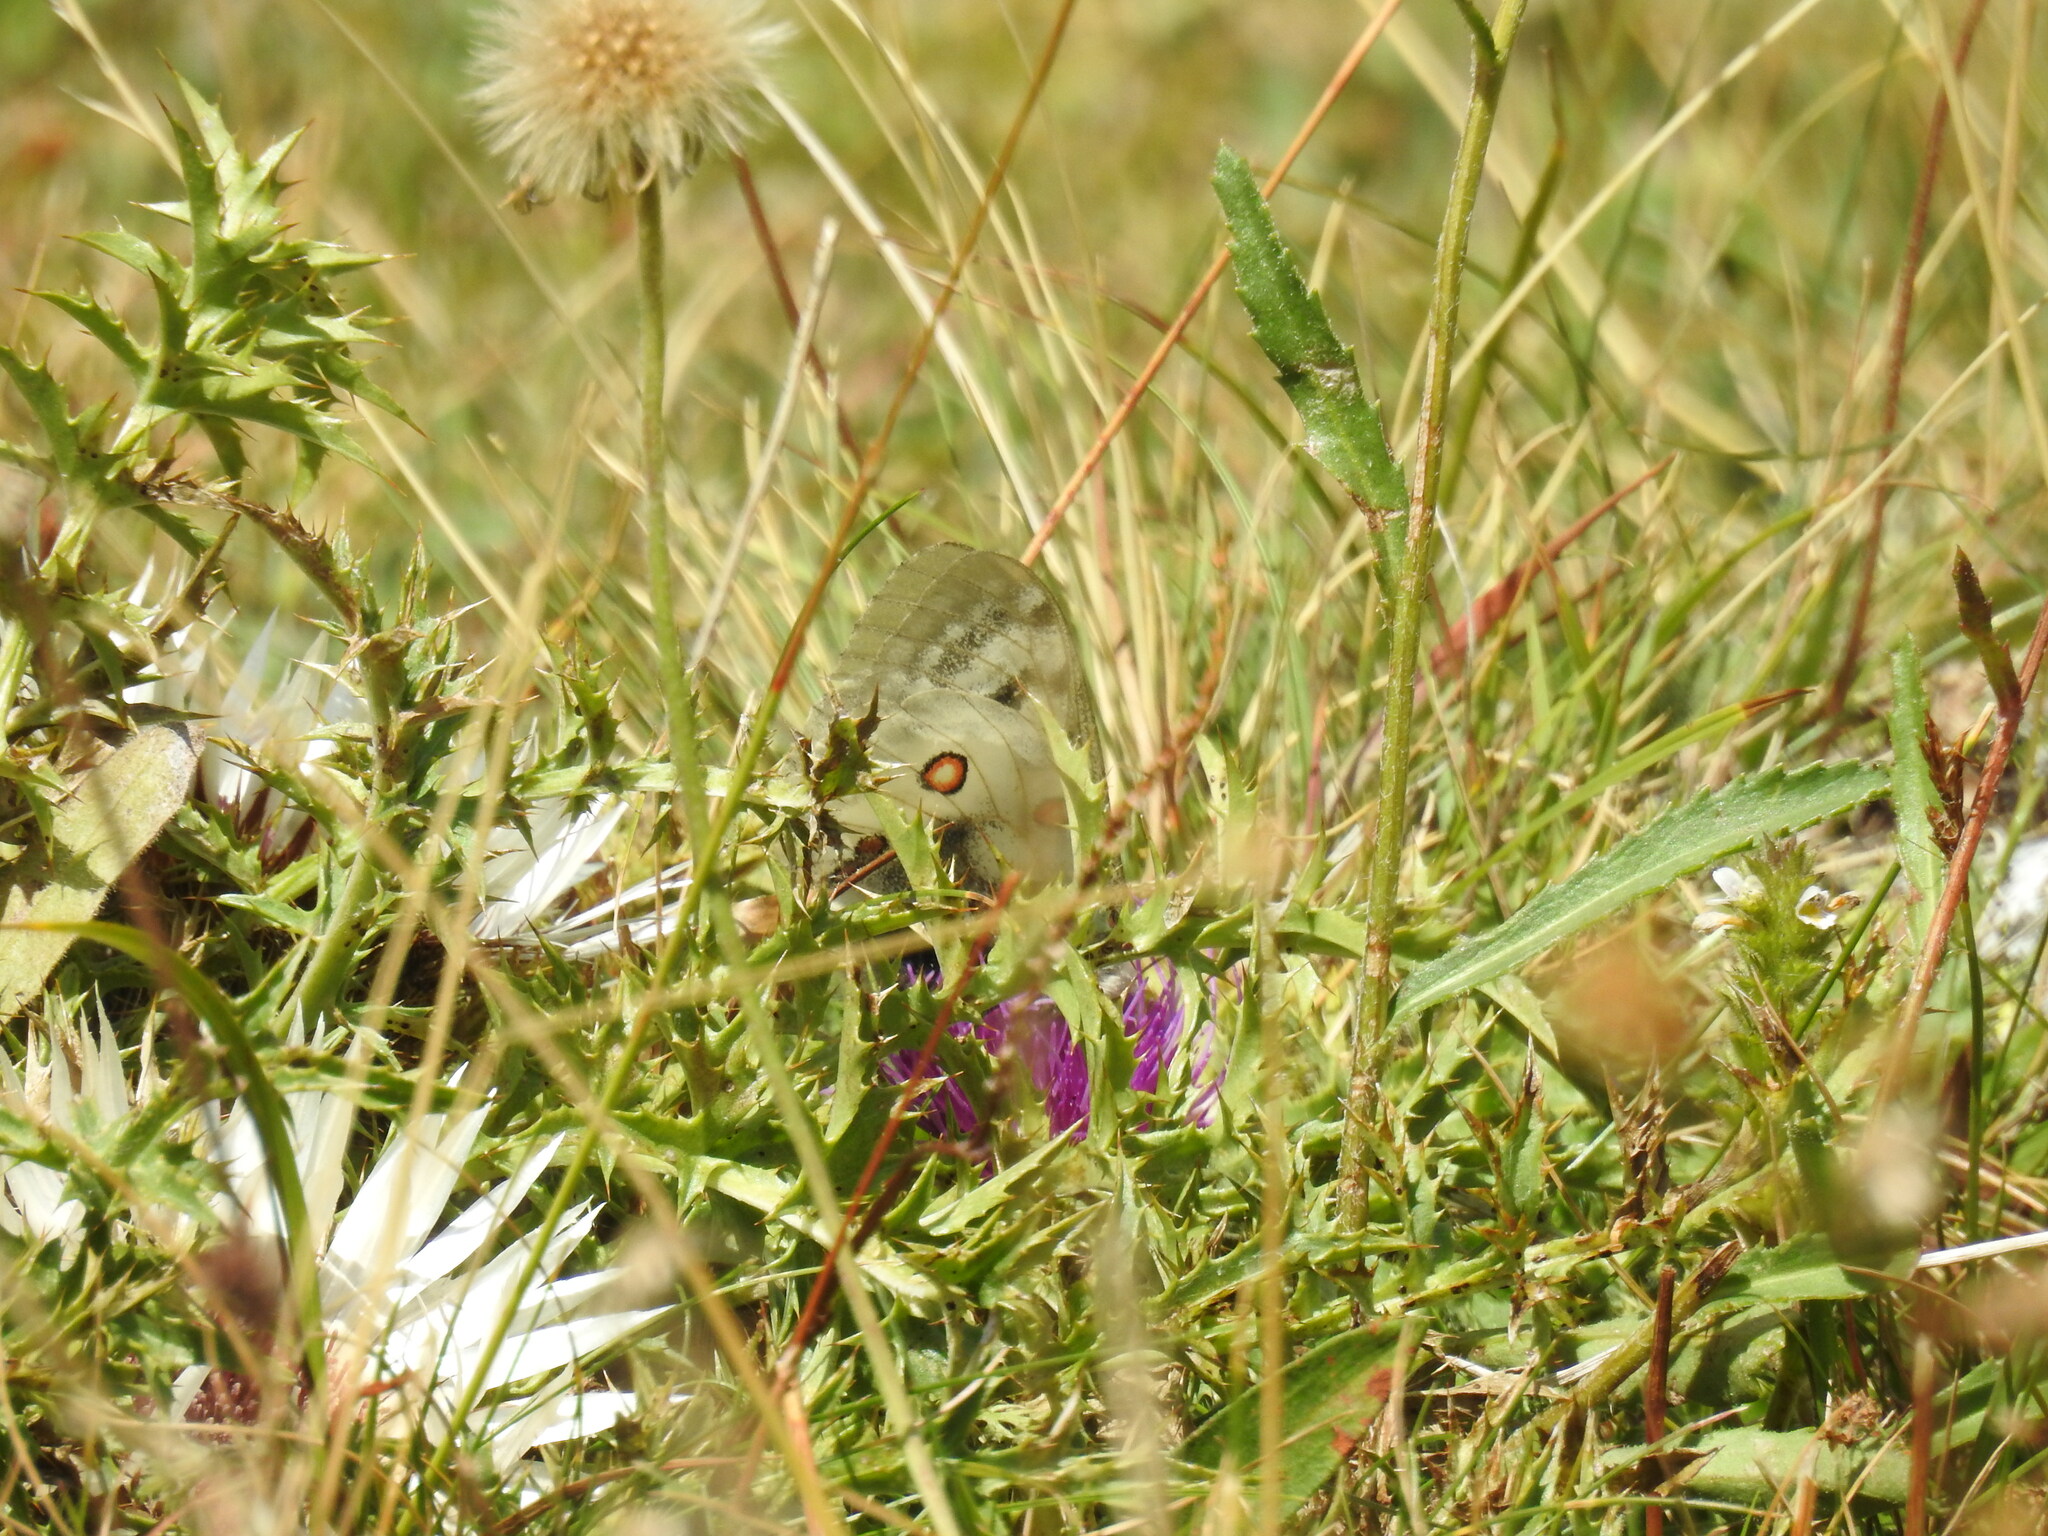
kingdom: Animalia
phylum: Arthropoda
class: Insecta
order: Lepidoptera
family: Papilionidae
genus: Parnassius
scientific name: Parnassius apollo
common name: Apollo
